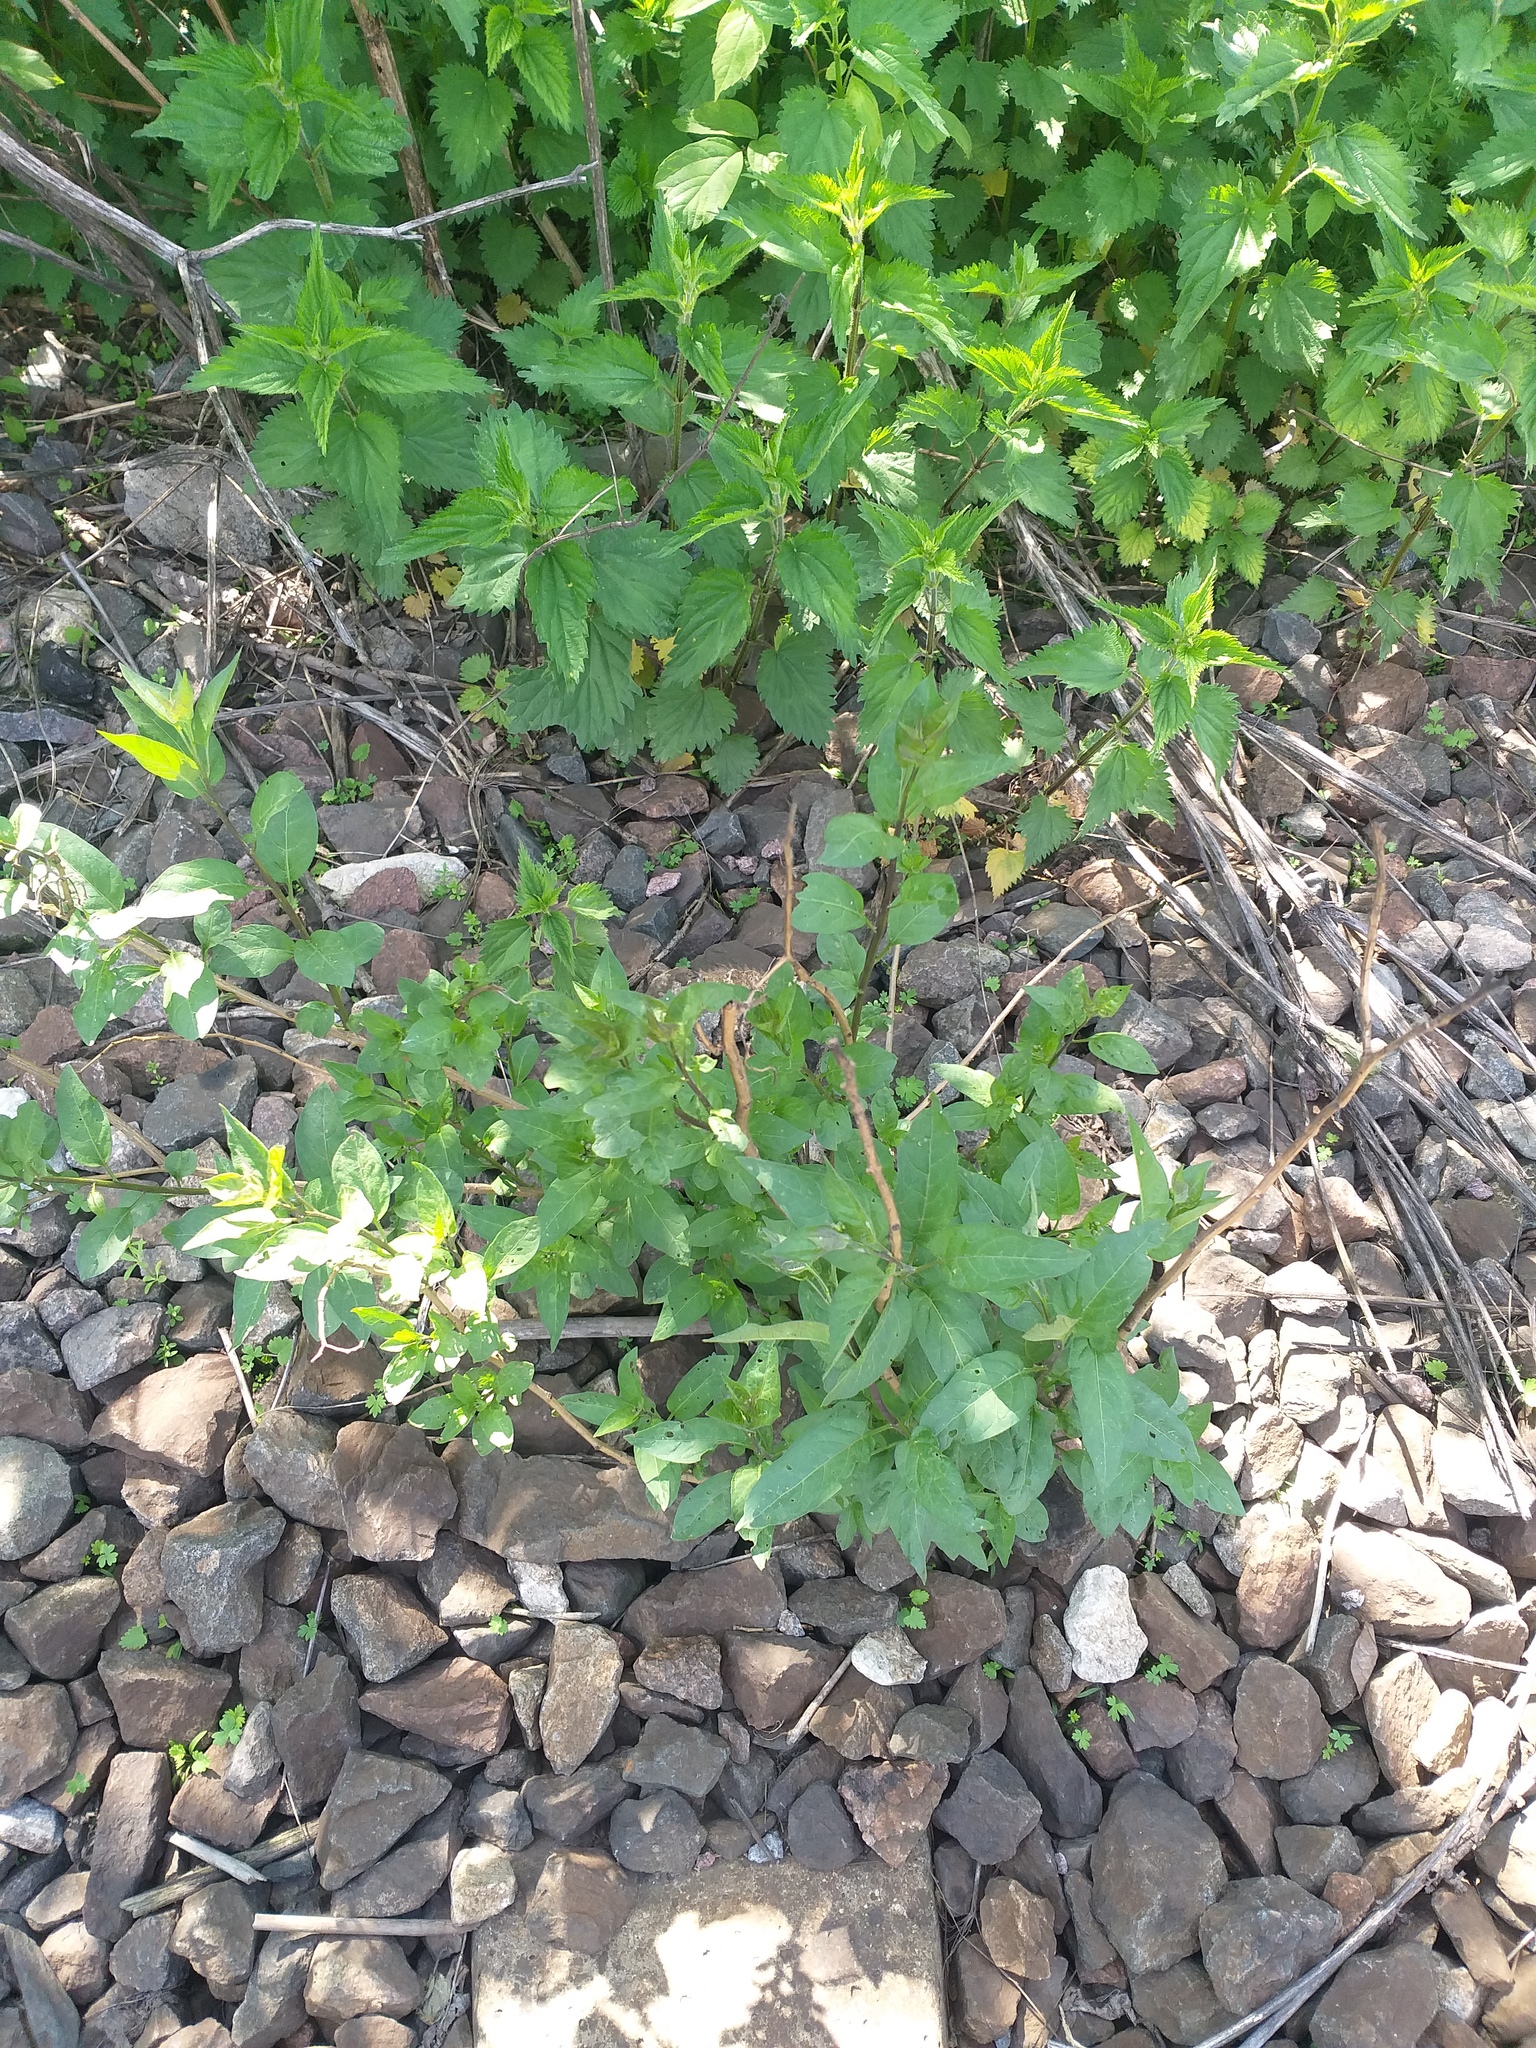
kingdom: Plantae
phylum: Tracheophyta
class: Magnoliopsida
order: Solanales
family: Solanaceae
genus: Solanum
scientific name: Solanum dulcamara
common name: Climbing nightshade
